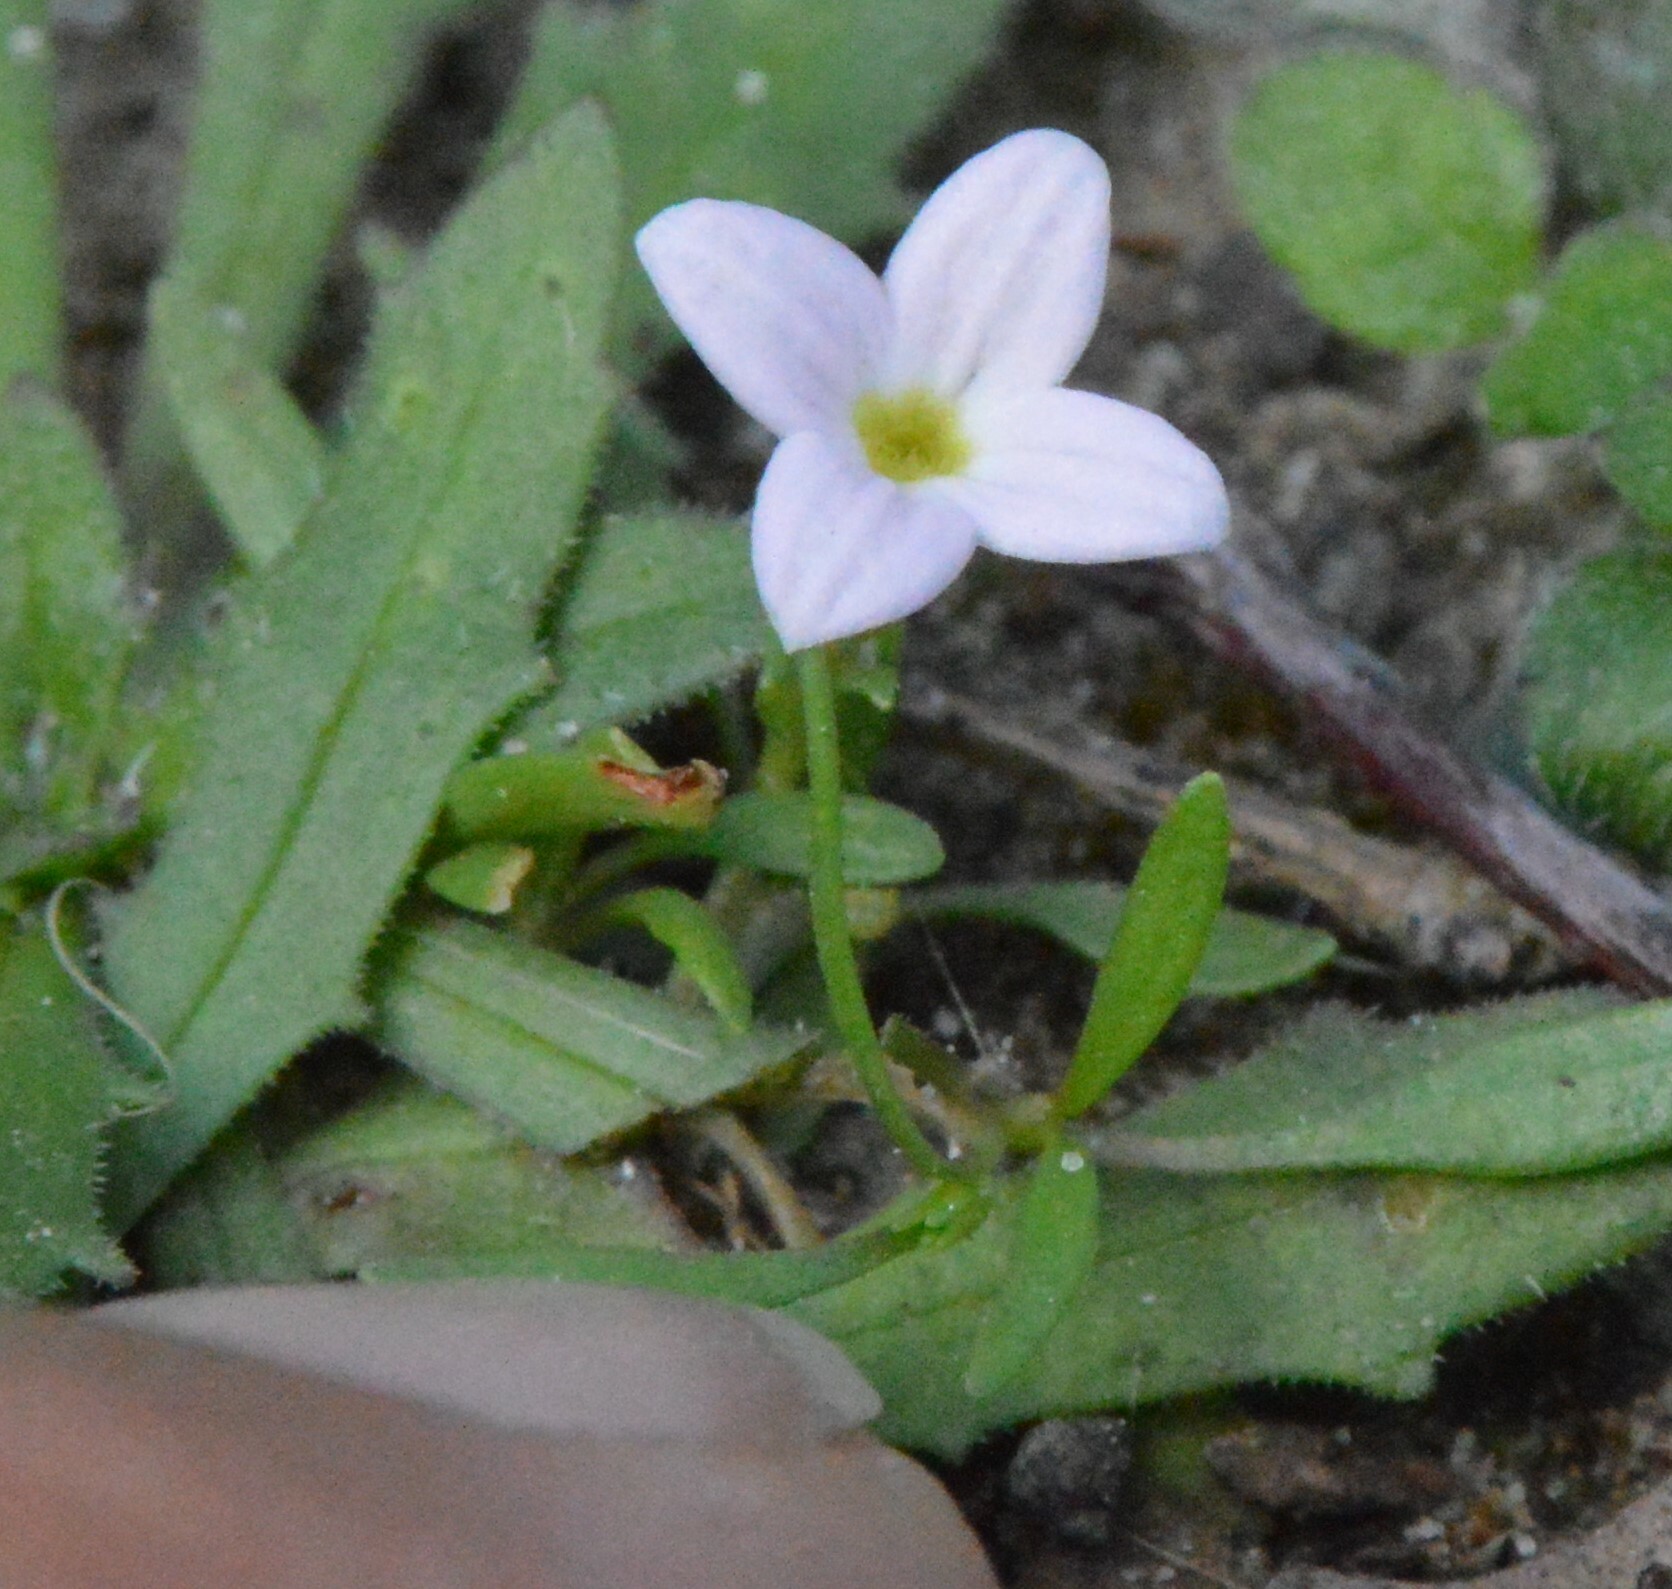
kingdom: Plantae
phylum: Tracheophyta
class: Magnoliopsida
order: Gentianales
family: Rubiaceae
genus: Houstonia
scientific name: Houstonia rosea
